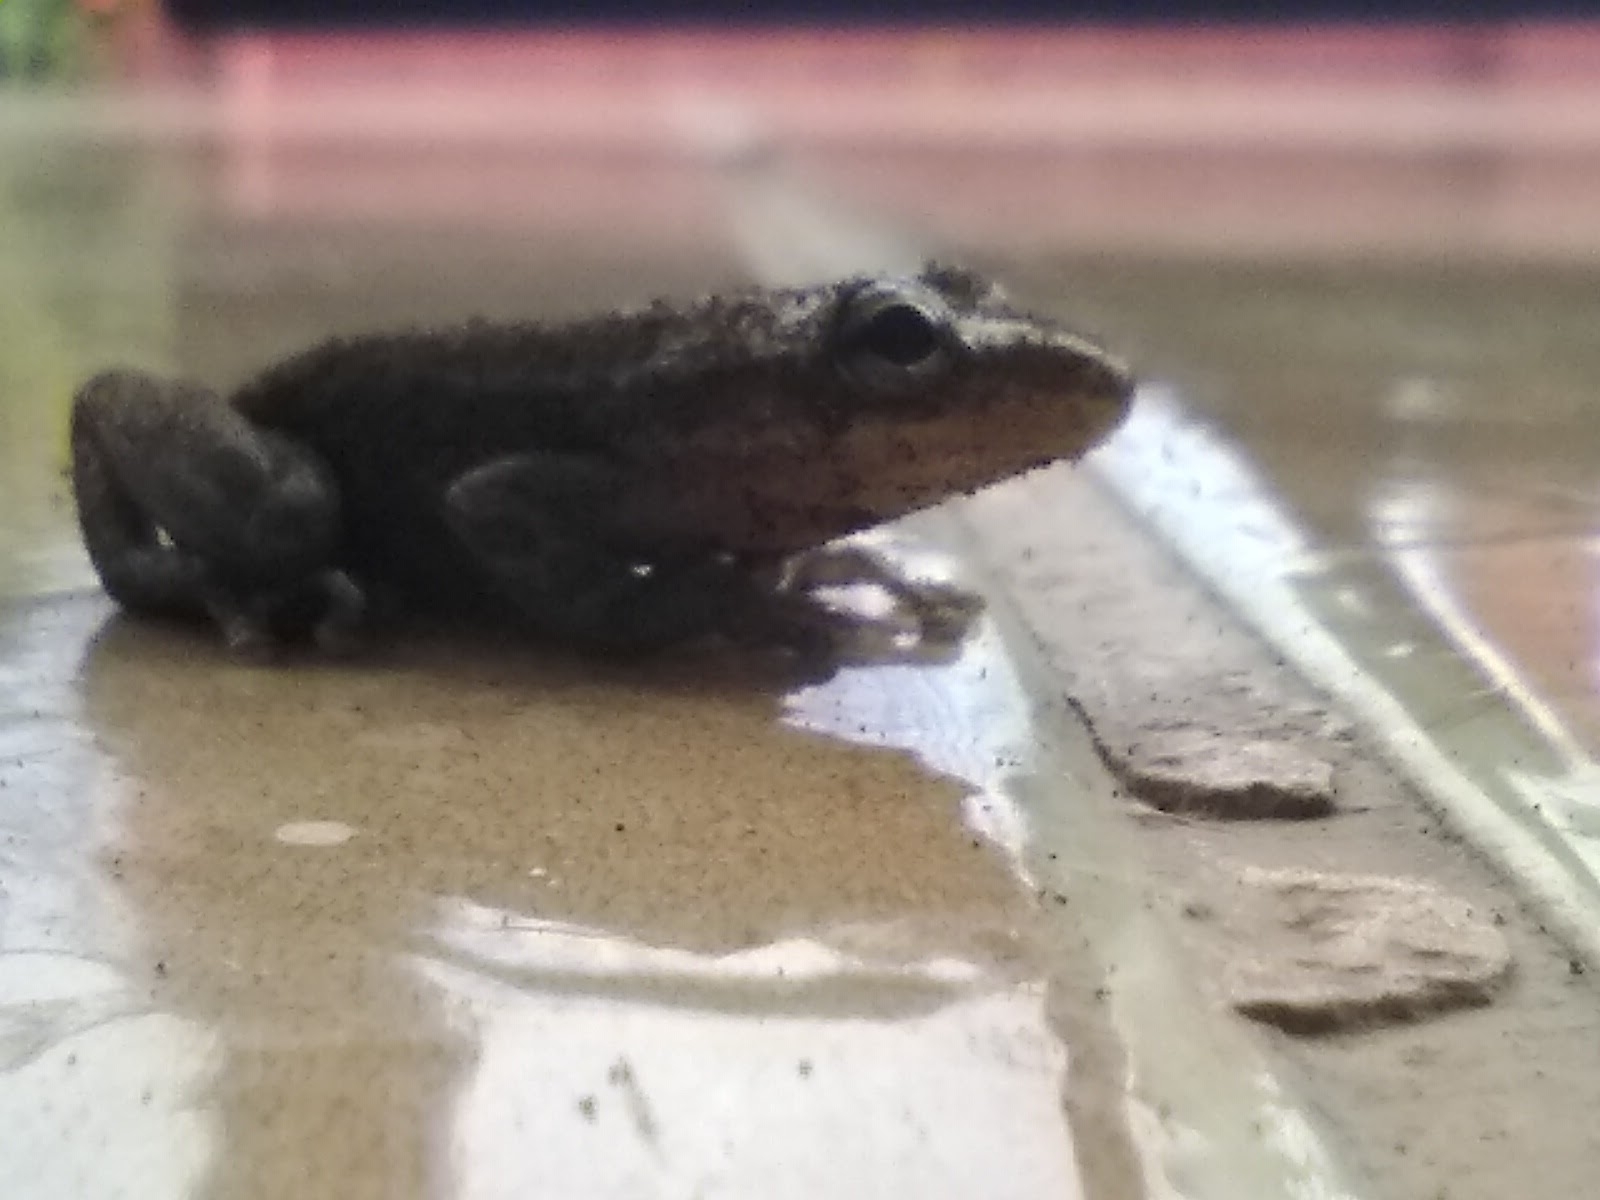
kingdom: Animalia
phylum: Chordata
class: Amphibia
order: Anura
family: Hylidae
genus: Scinax
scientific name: Scinax altae
